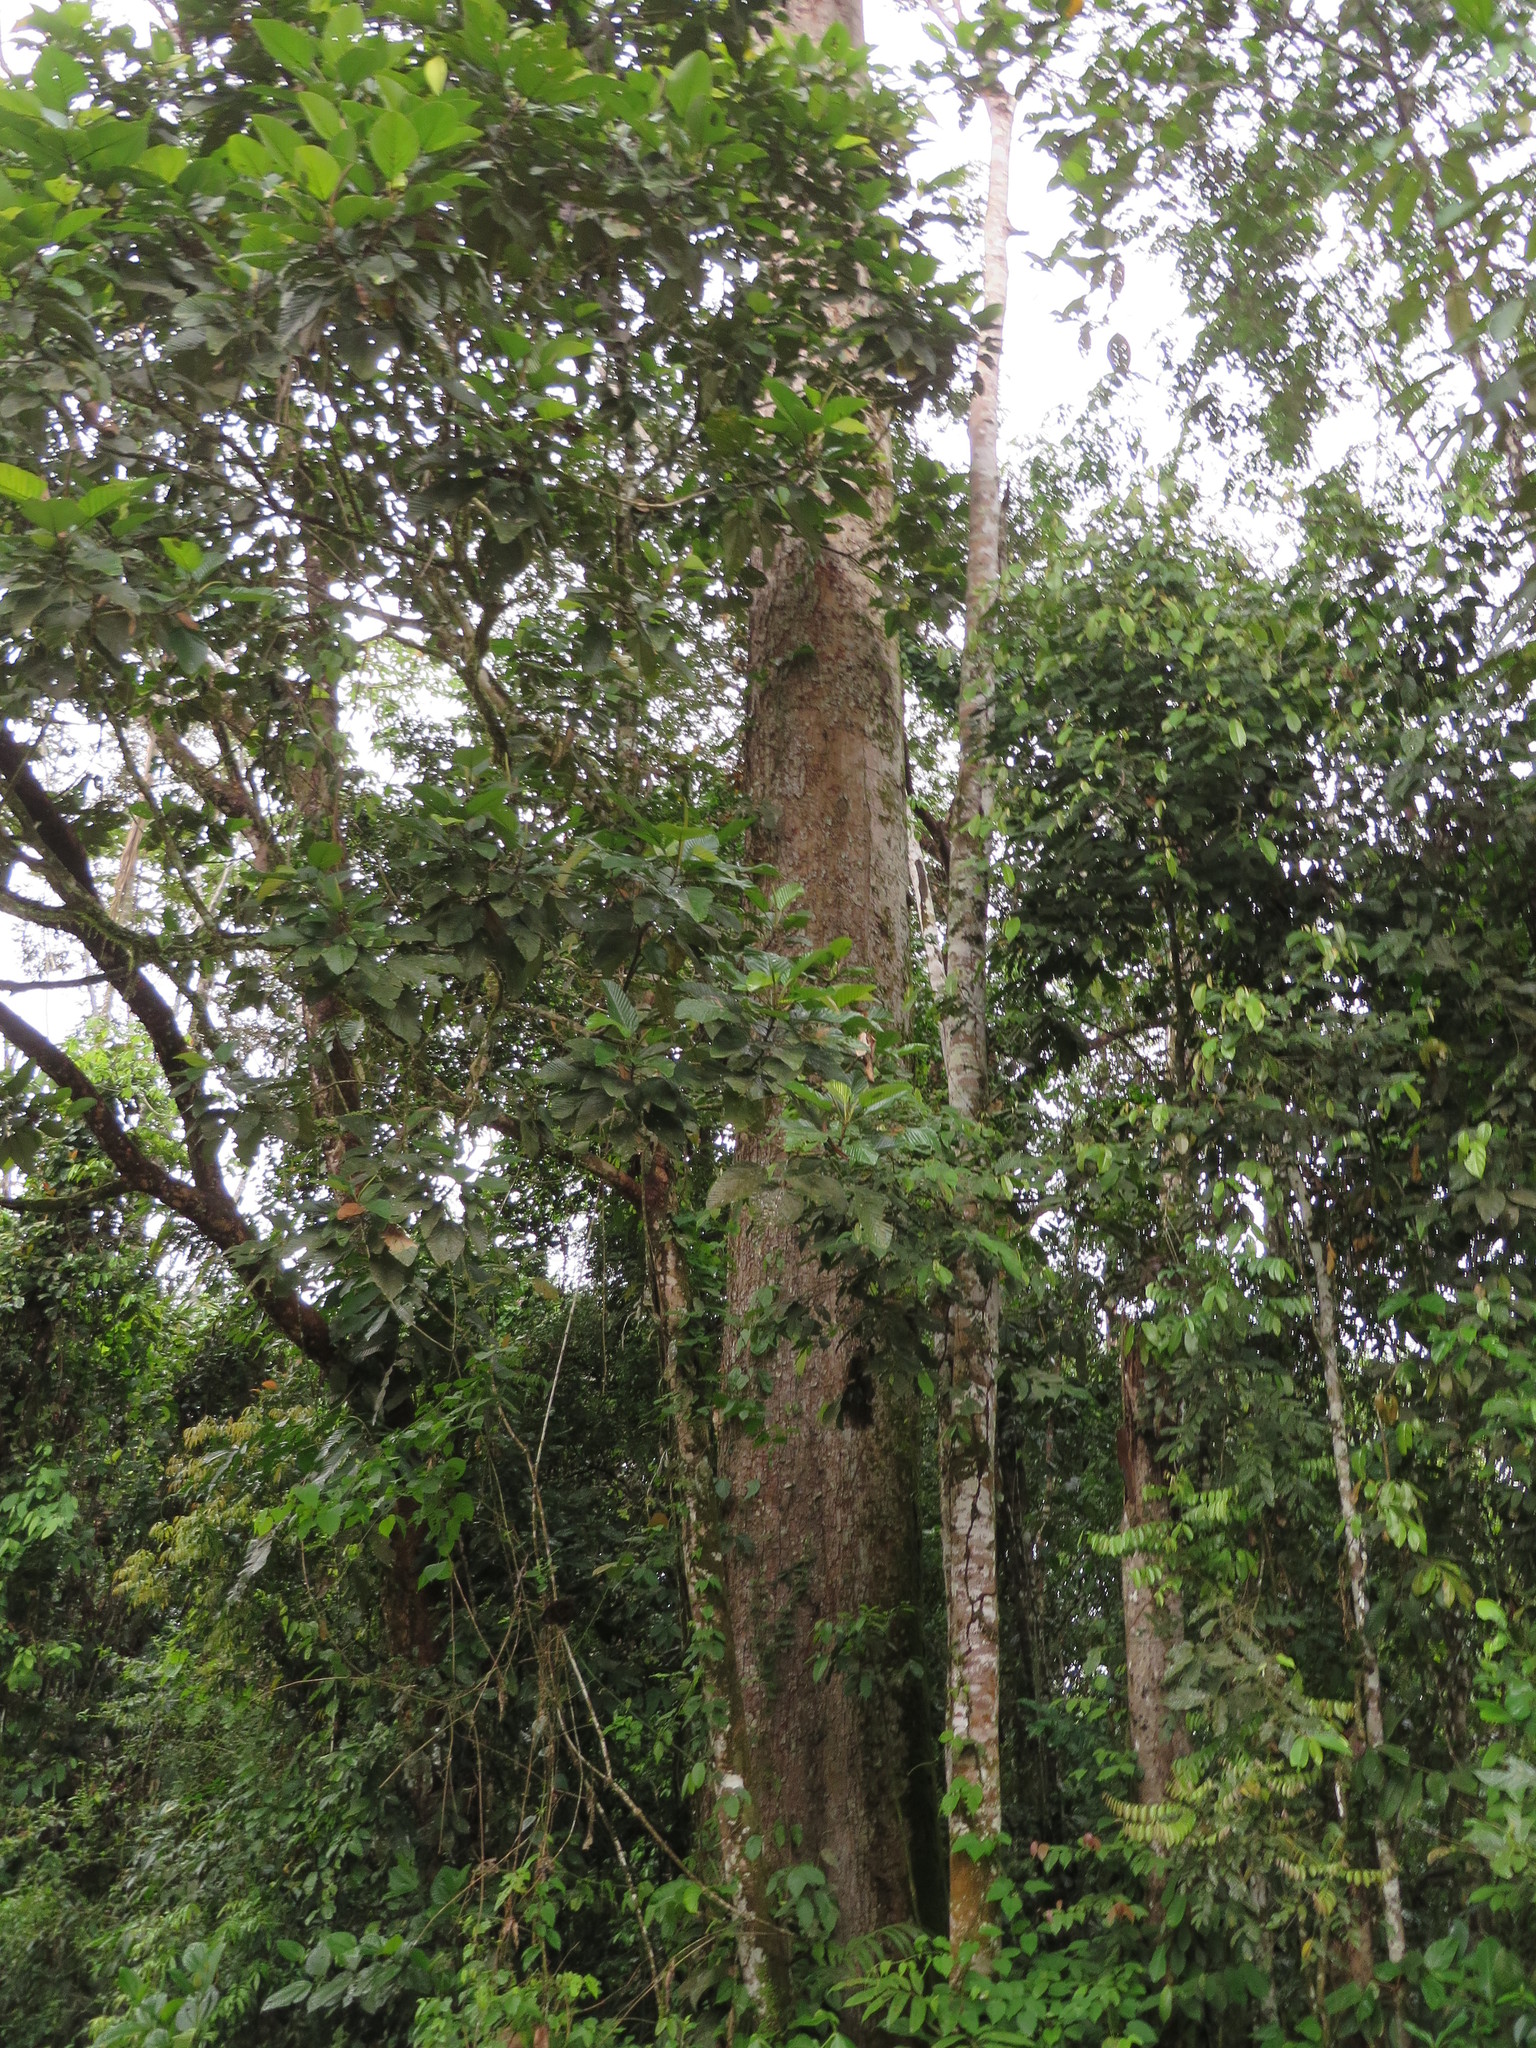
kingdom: Plantae
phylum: Tracheophyta
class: Magnoliopsida
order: Fabales
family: Fabaceae
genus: Cedrelinga
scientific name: Cedrelinga cateniformis
